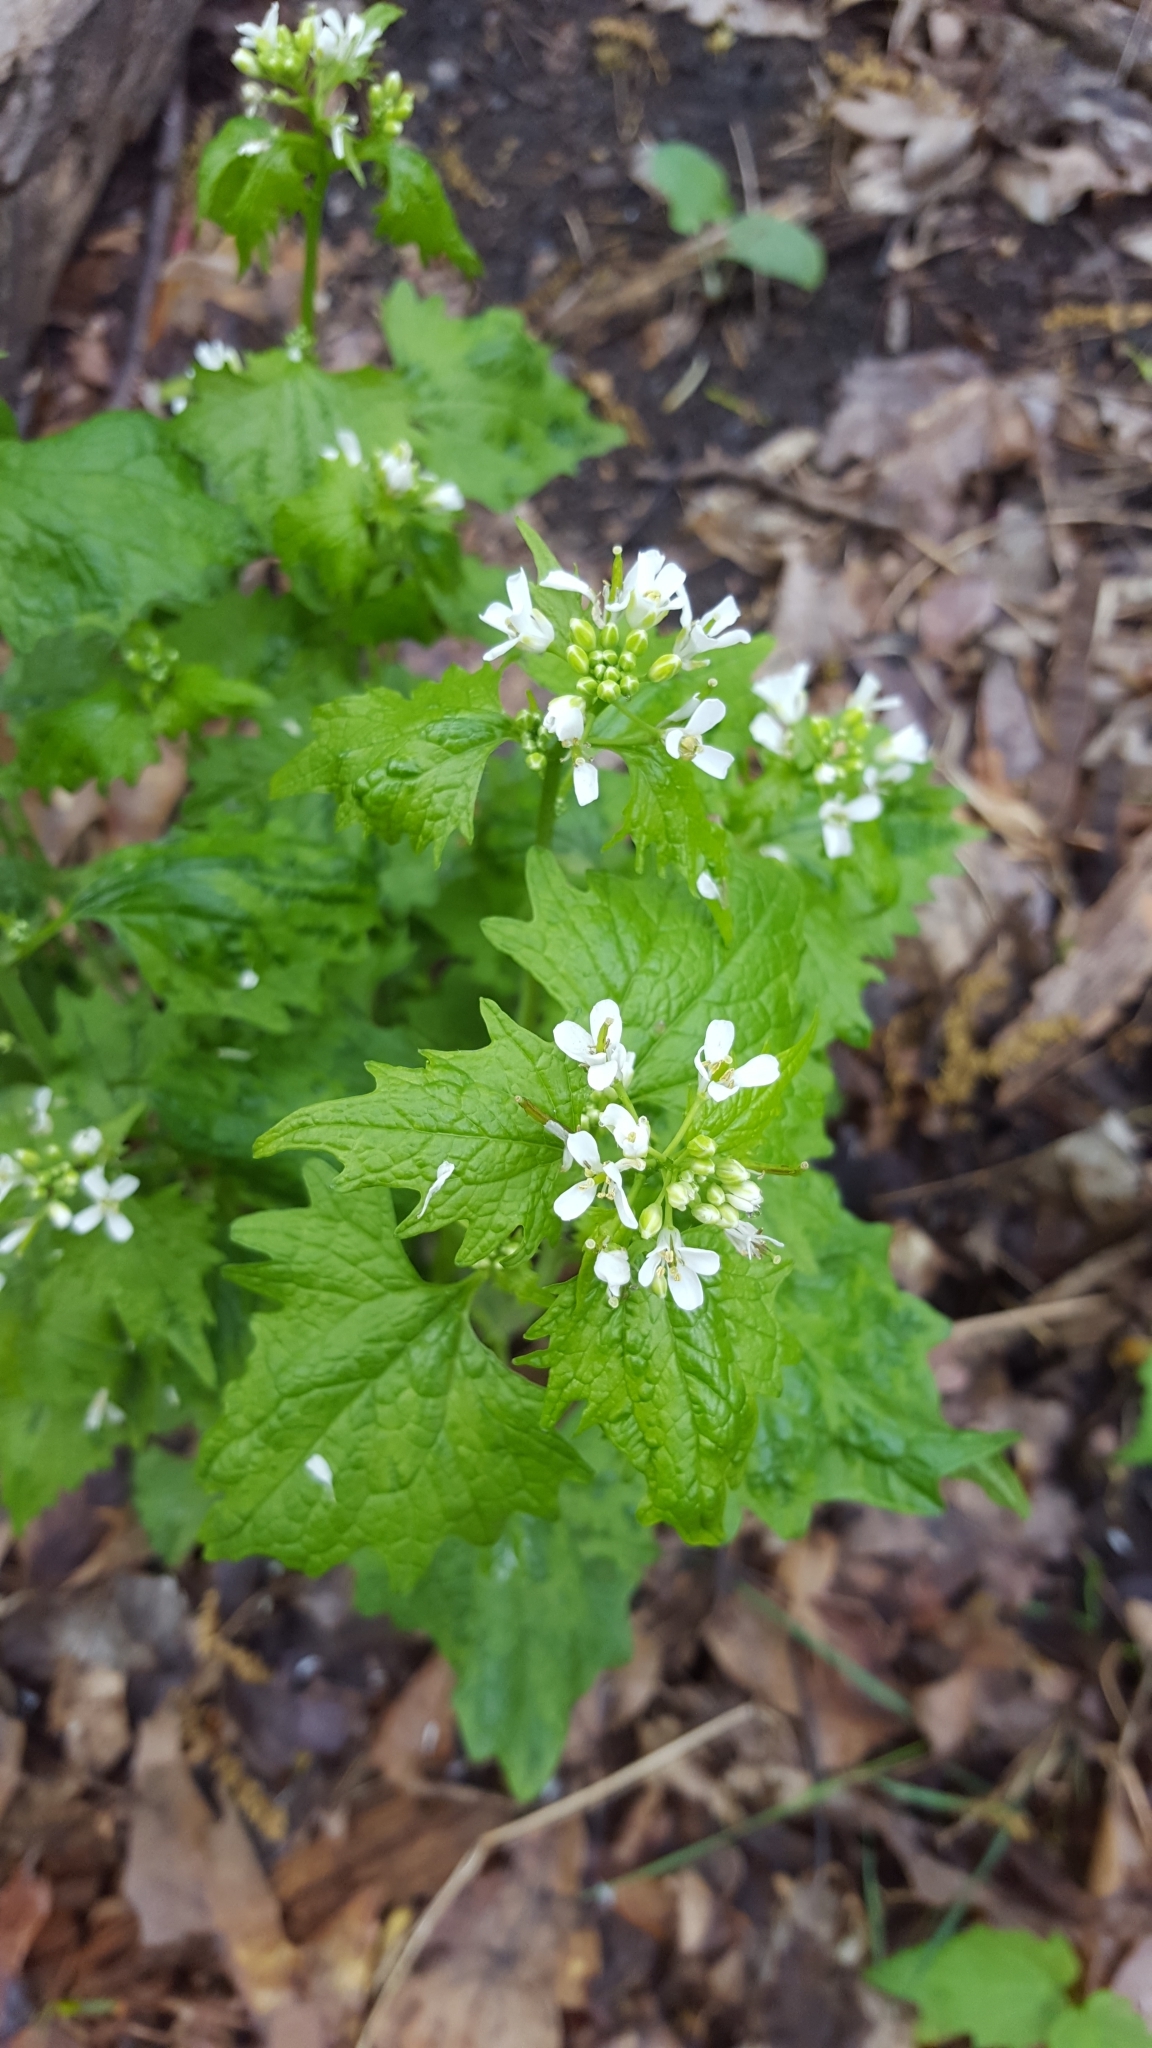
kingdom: Plantae
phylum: Tracheophyta
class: Magnoliopsida
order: Brassicales
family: Brassicaceae
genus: Alliaria
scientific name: Alliaria petiolata
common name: Garlic mustard
